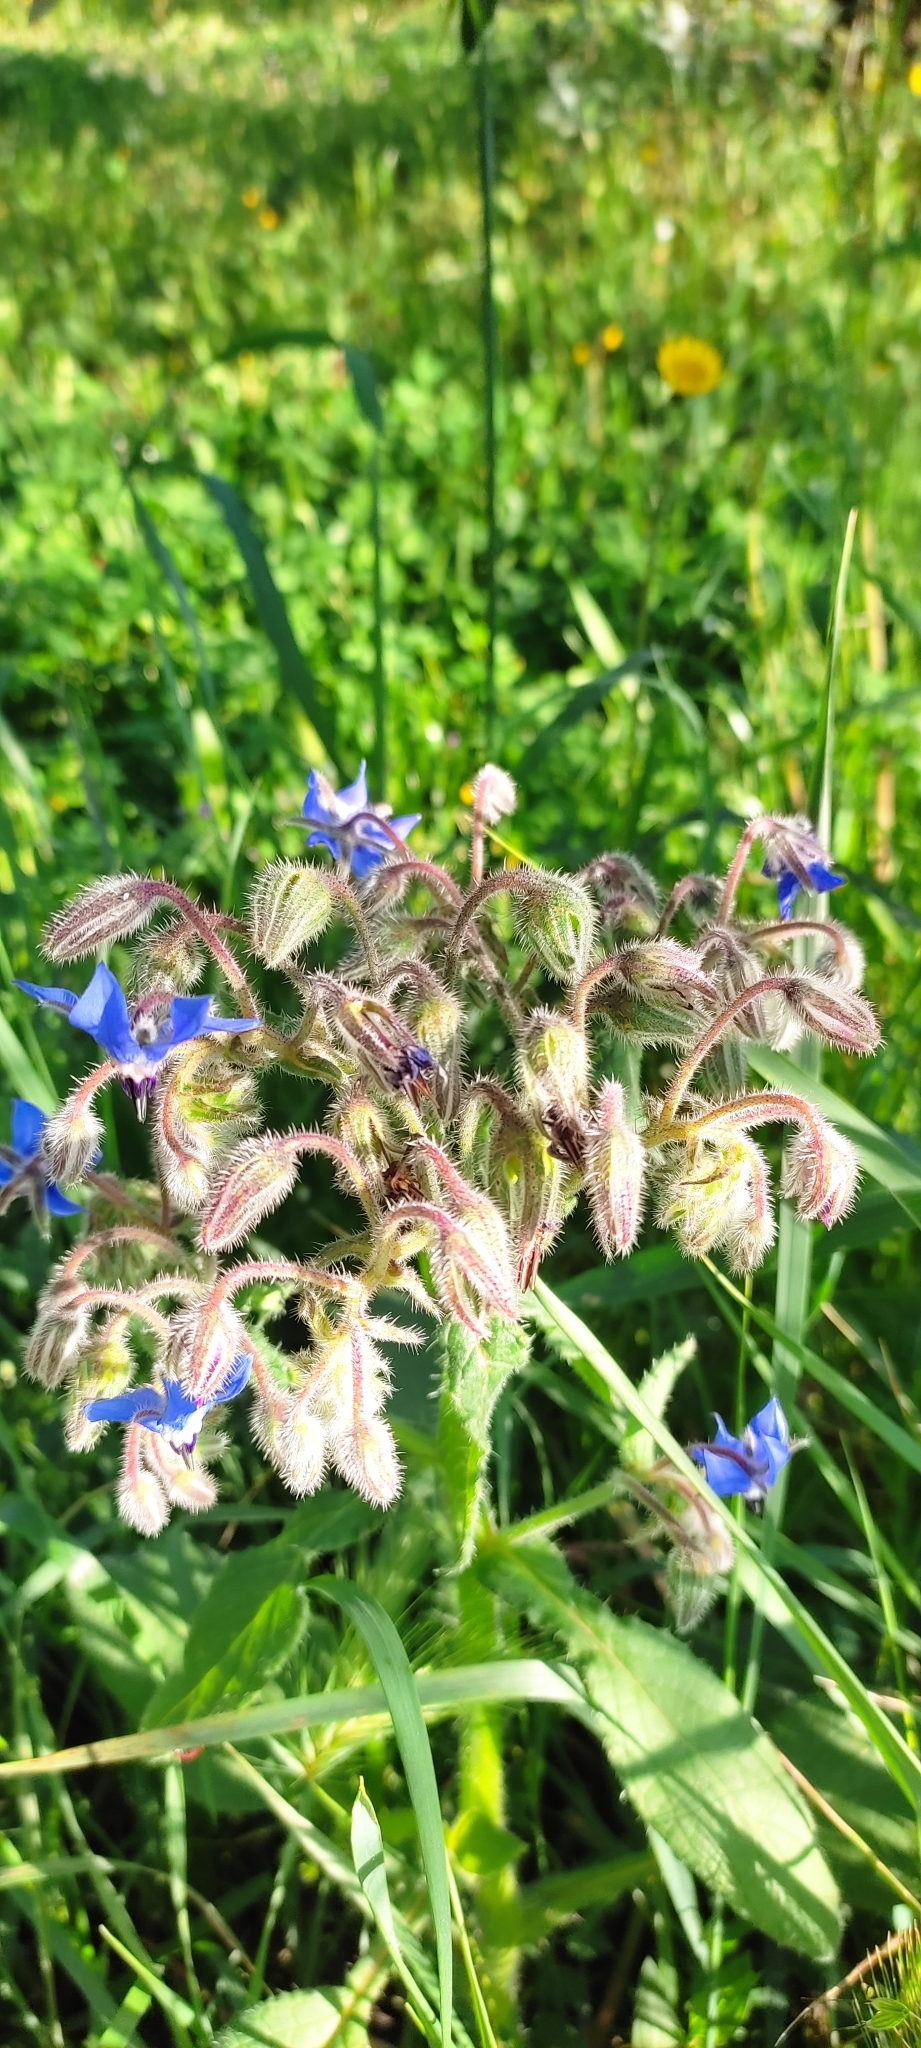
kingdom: Plantae
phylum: Tracheophyta
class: Magnoliopsida
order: Boraginales
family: Boraginaceae
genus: Borago
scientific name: Borago officinalis
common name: Borage
